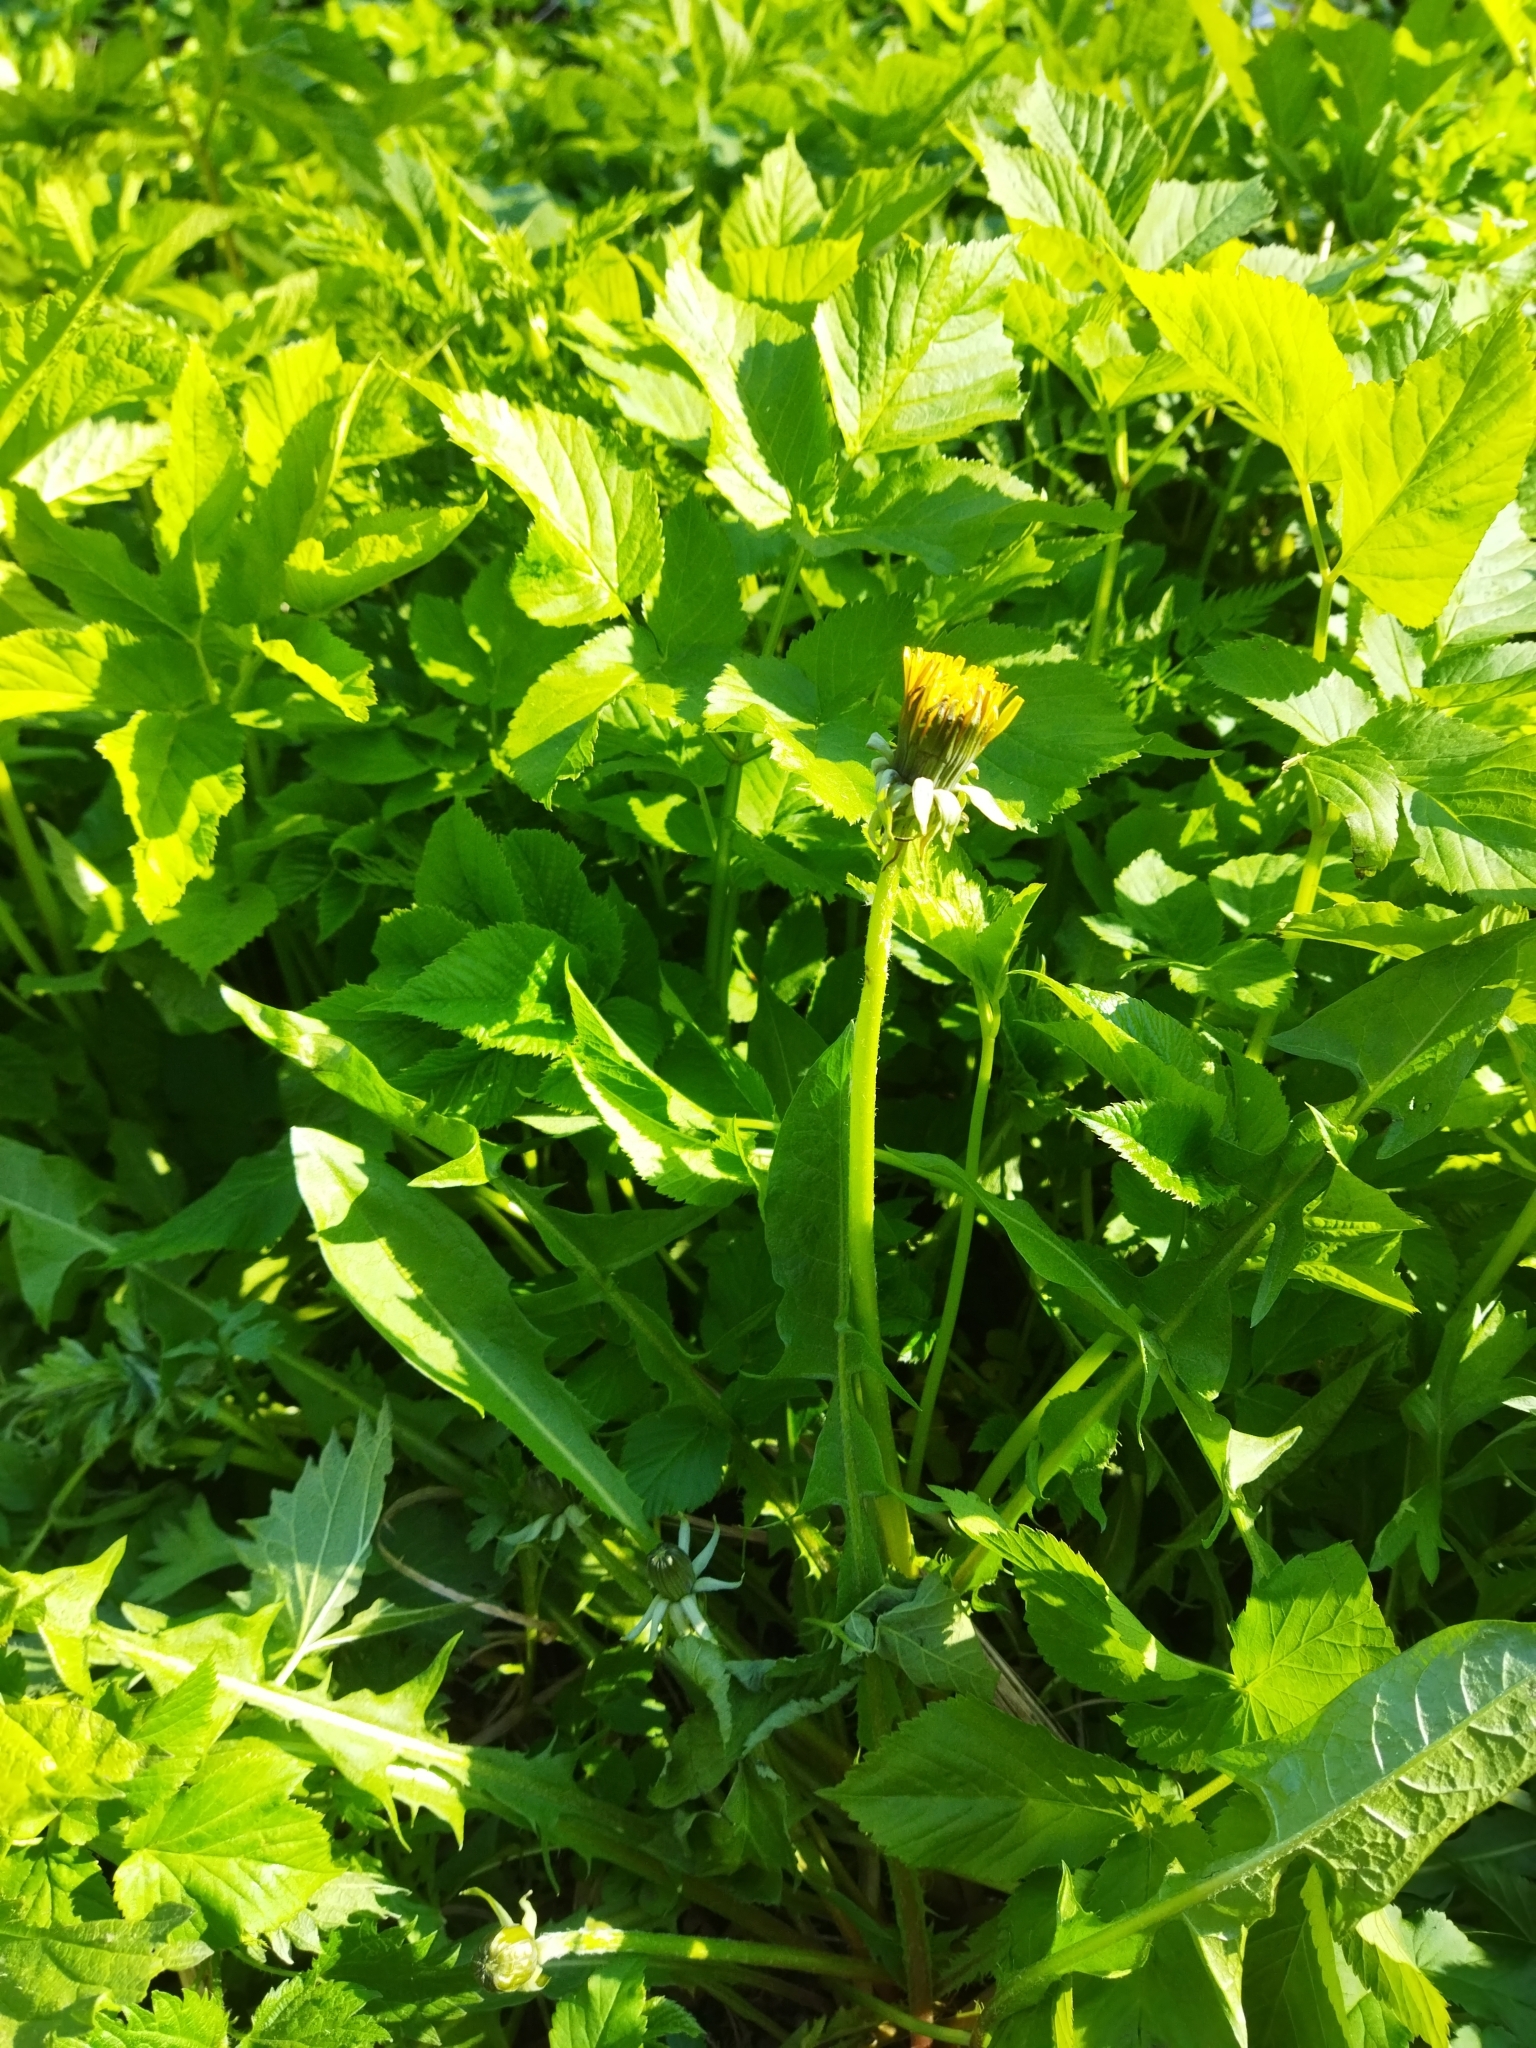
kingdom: Plantae
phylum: Tracheophyta
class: Magnoliopsida
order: Asterales
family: Asteraceae
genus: Taraxacum
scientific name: Taraxacum officinale
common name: Common dandelion
